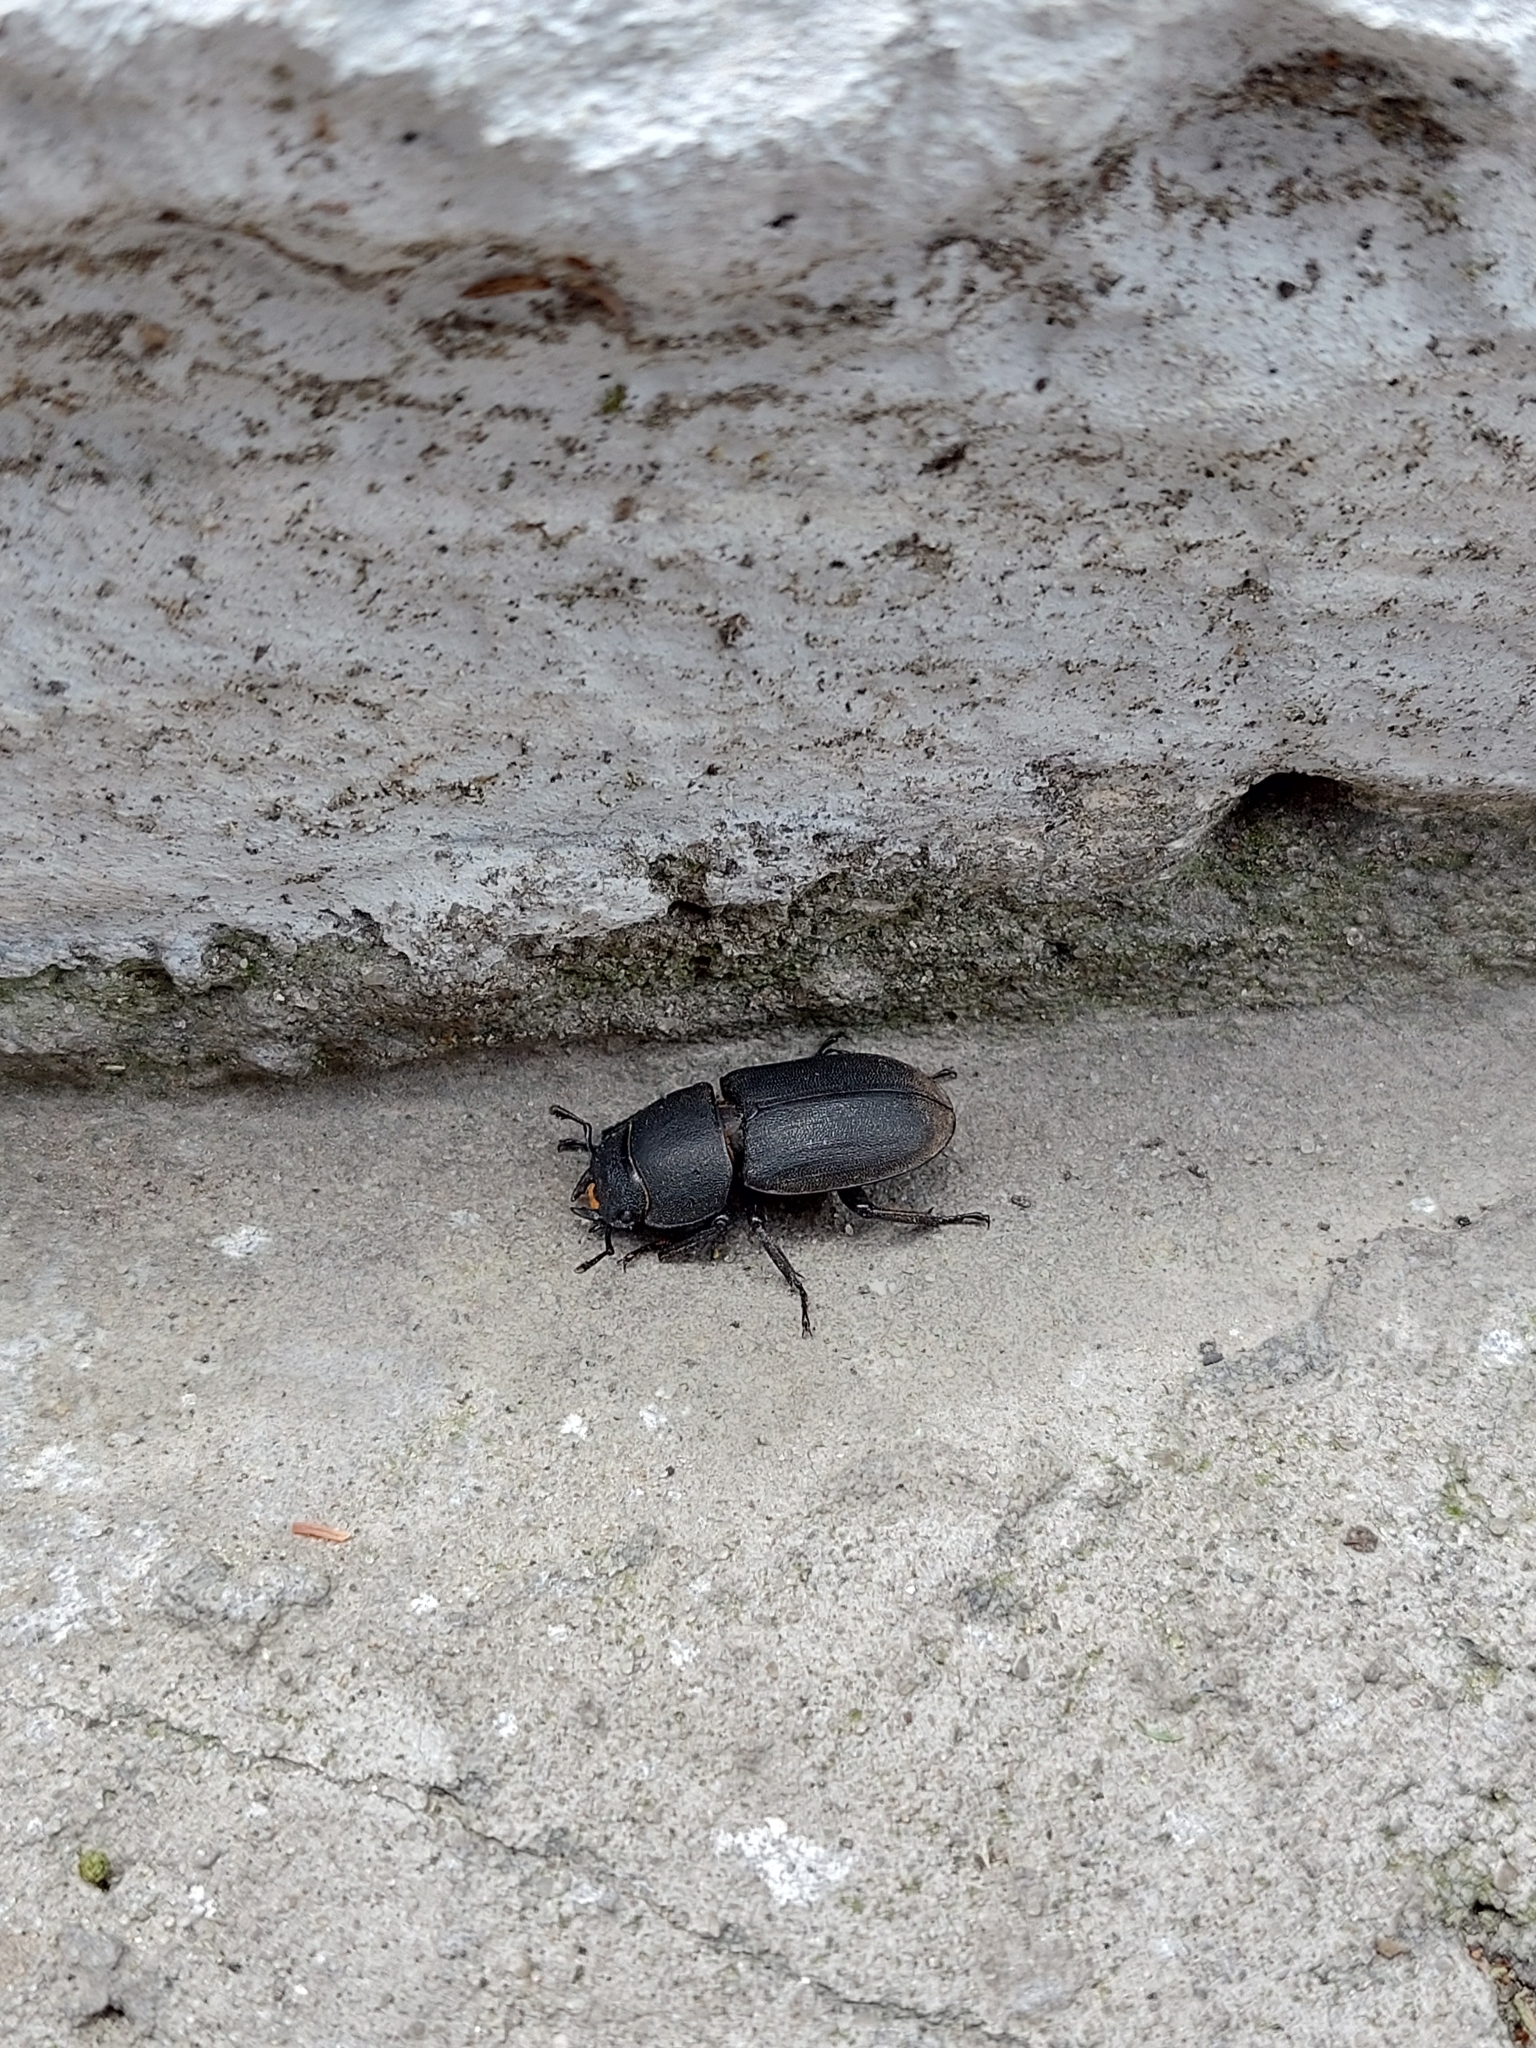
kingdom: Animalia
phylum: Arthropoda
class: Insecta
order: Coleoptera
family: Lucanidae
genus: Dorcus
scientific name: Dorcus parallelipipedus
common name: Lesser stag beetle
